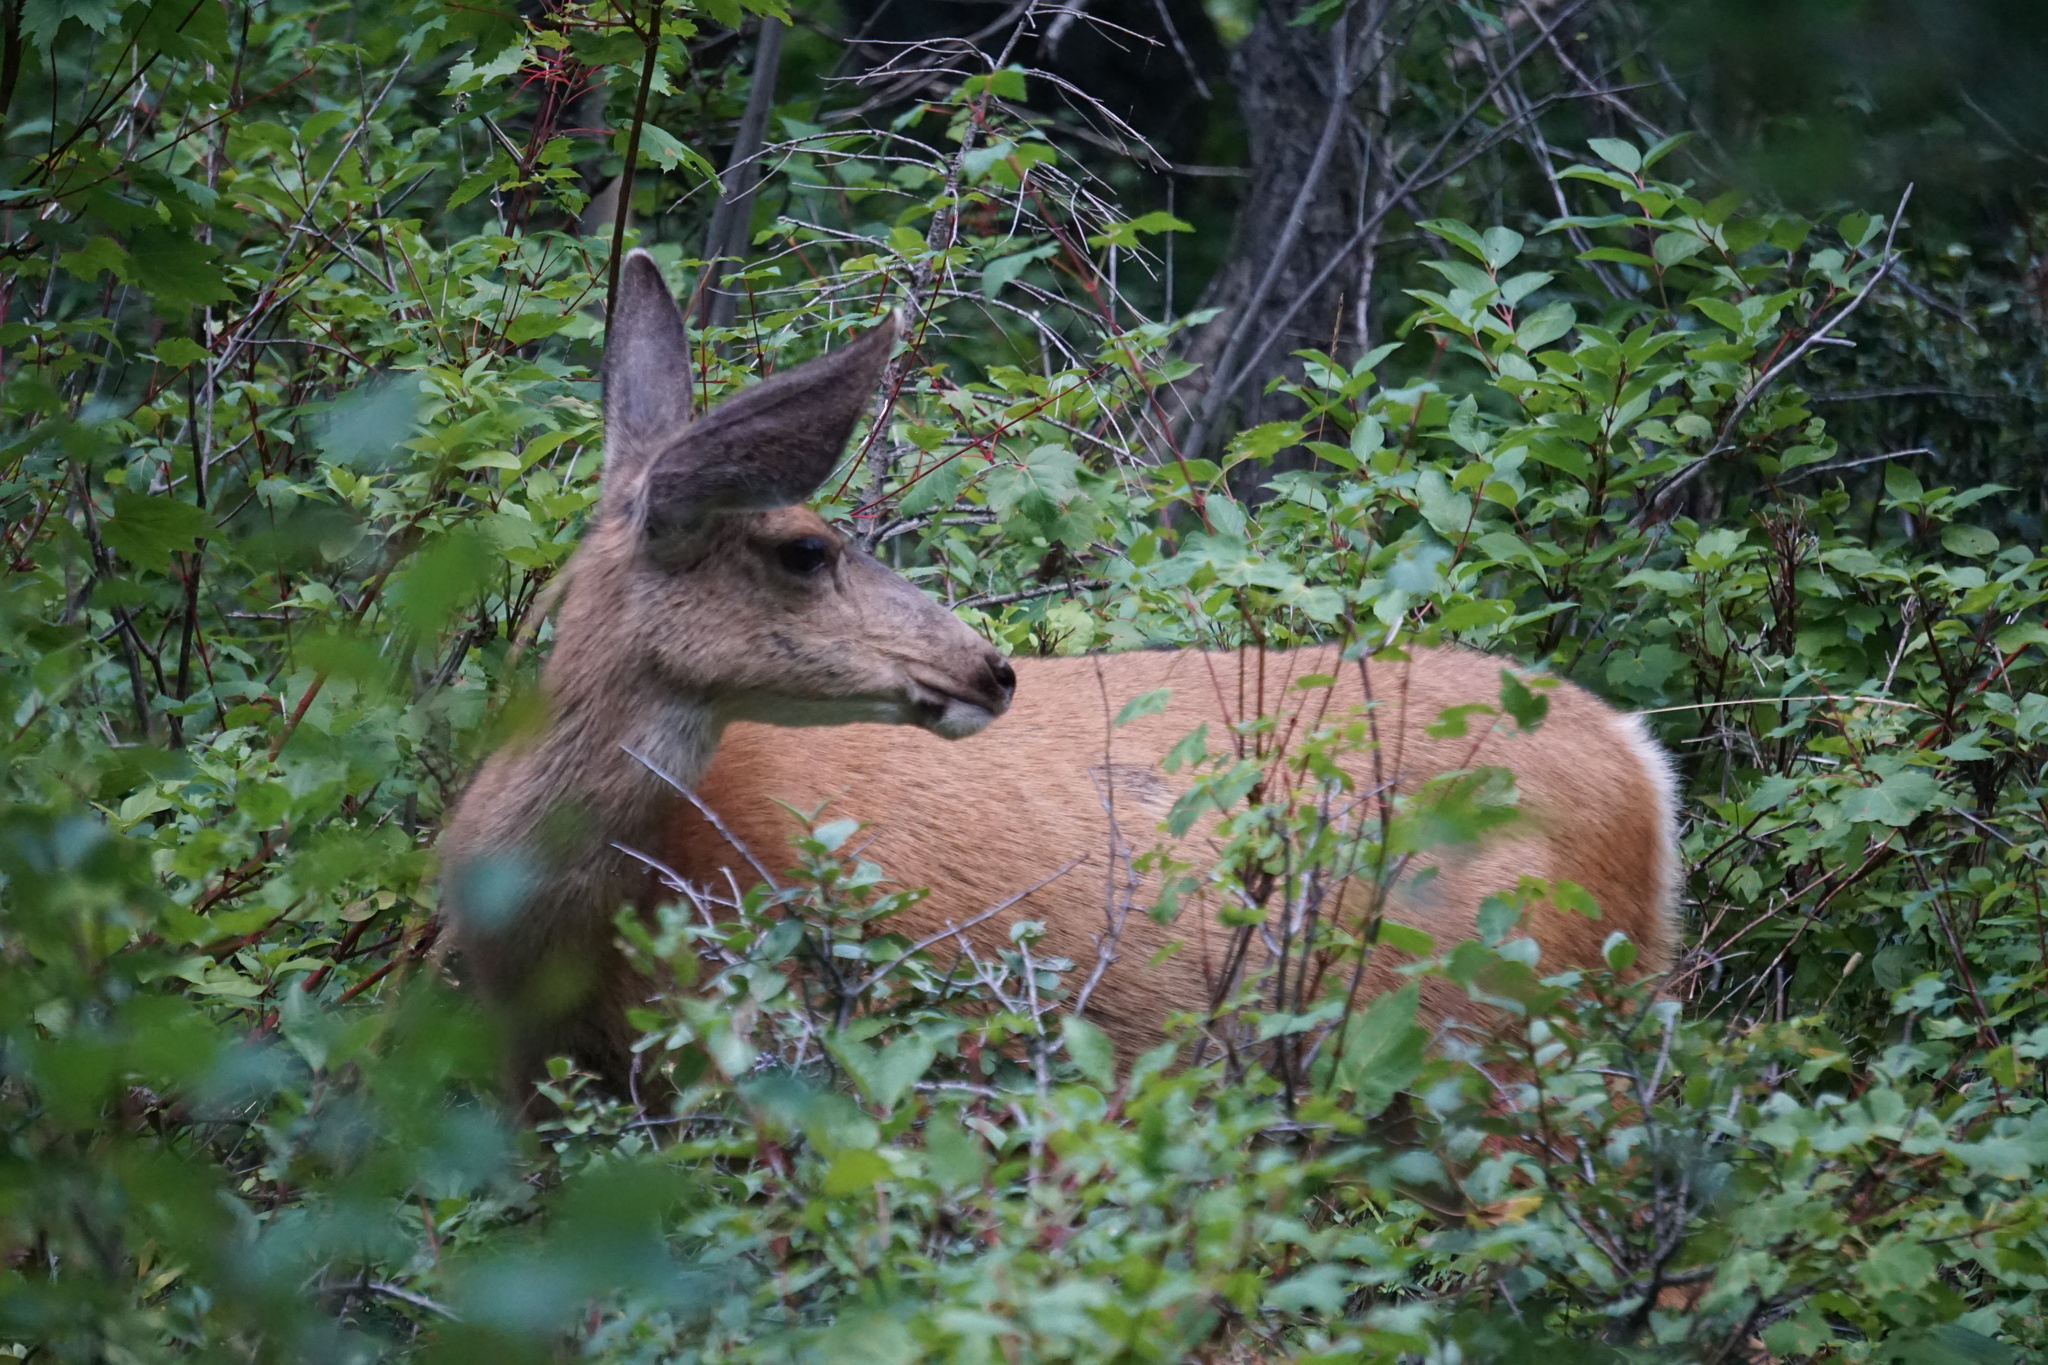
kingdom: Animalia
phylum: Chordata
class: Mammalia
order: Artiodactyla
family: Cervidae
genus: Odocoileus
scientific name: Odocoileus hemionus
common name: Mule deer
